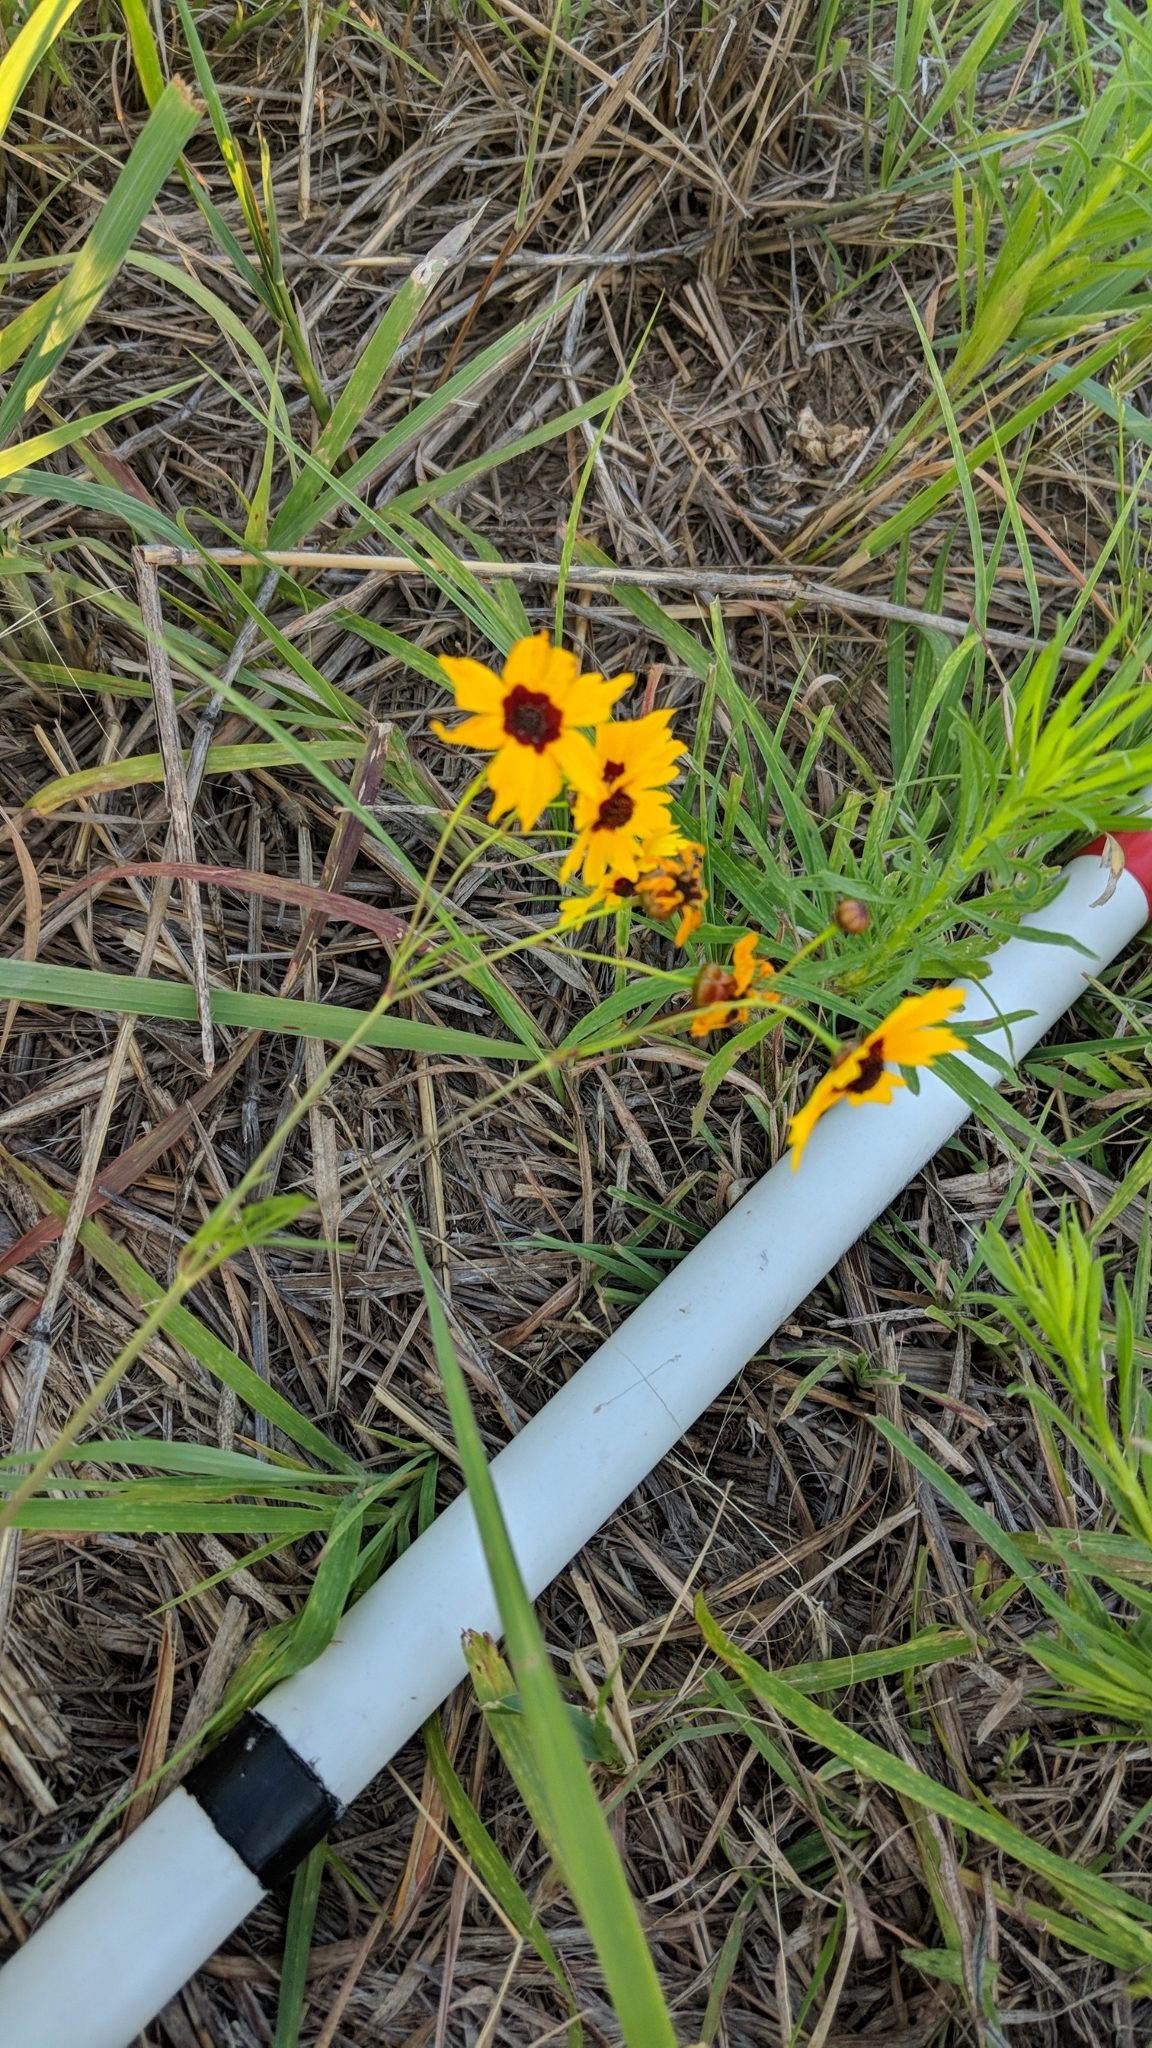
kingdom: Plantae
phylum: Tracheophyta
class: Magnoliopsida
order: Asterales
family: Asteraceae
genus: Coreopsis
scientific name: Coreopsis tinctoria
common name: Garden tickseed
